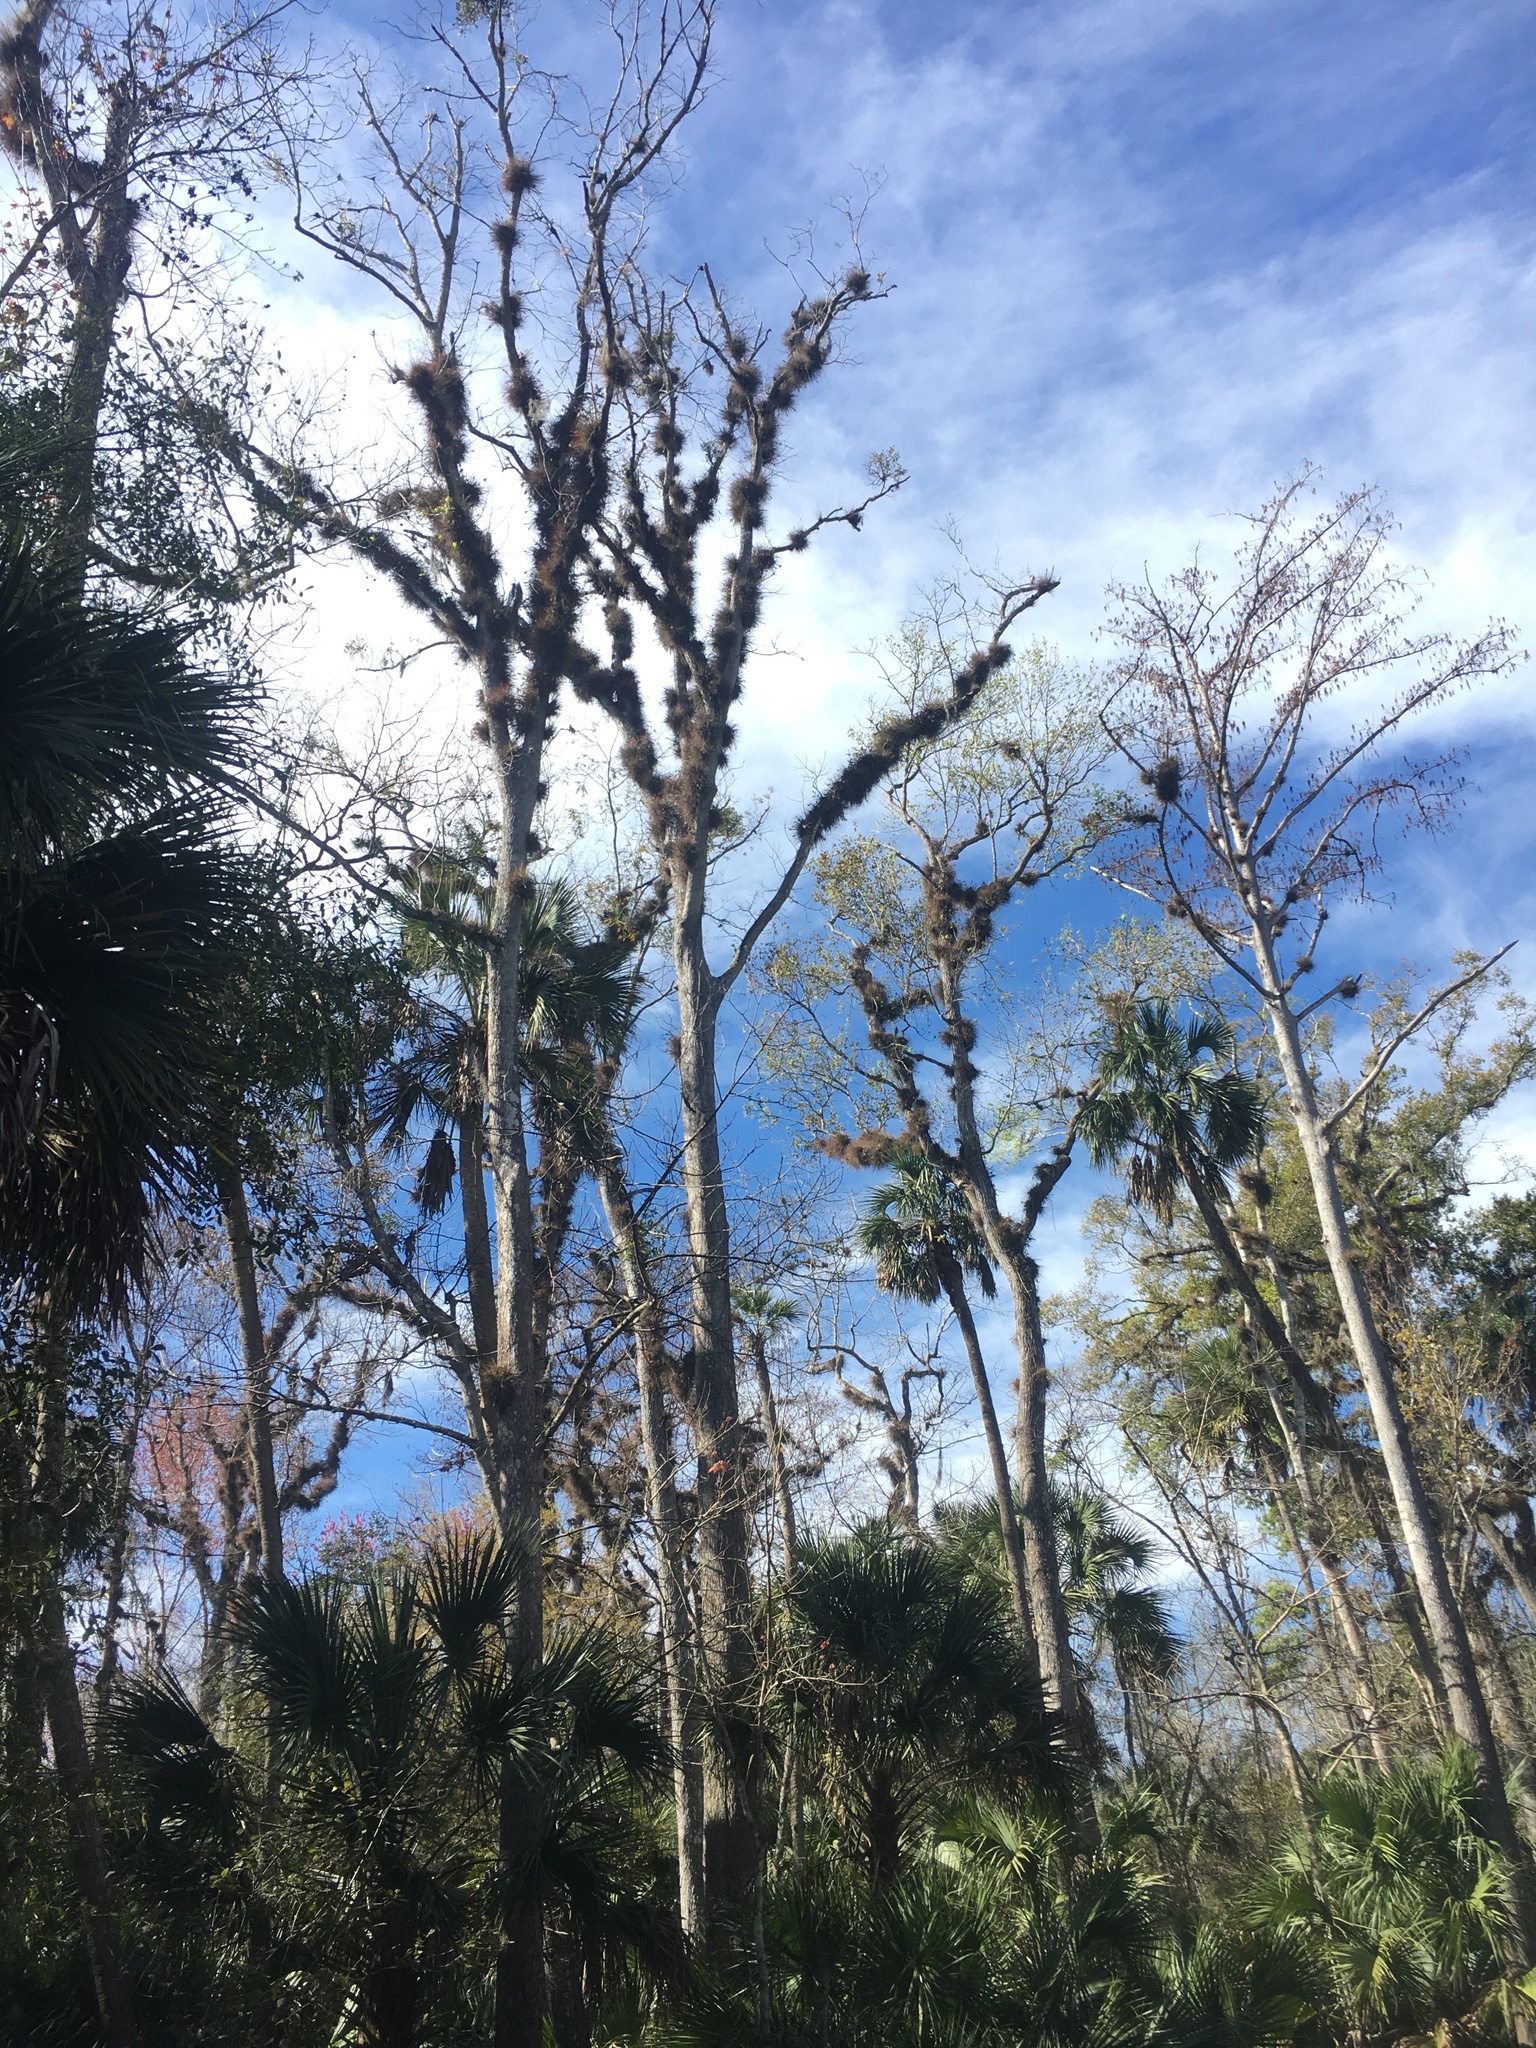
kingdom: Plantae
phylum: Tracheophyta
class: Liliopsida
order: Poales
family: Bromeliaceae
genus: Tillandsia
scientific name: Tillandsia recurvata
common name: Small ballmoss
